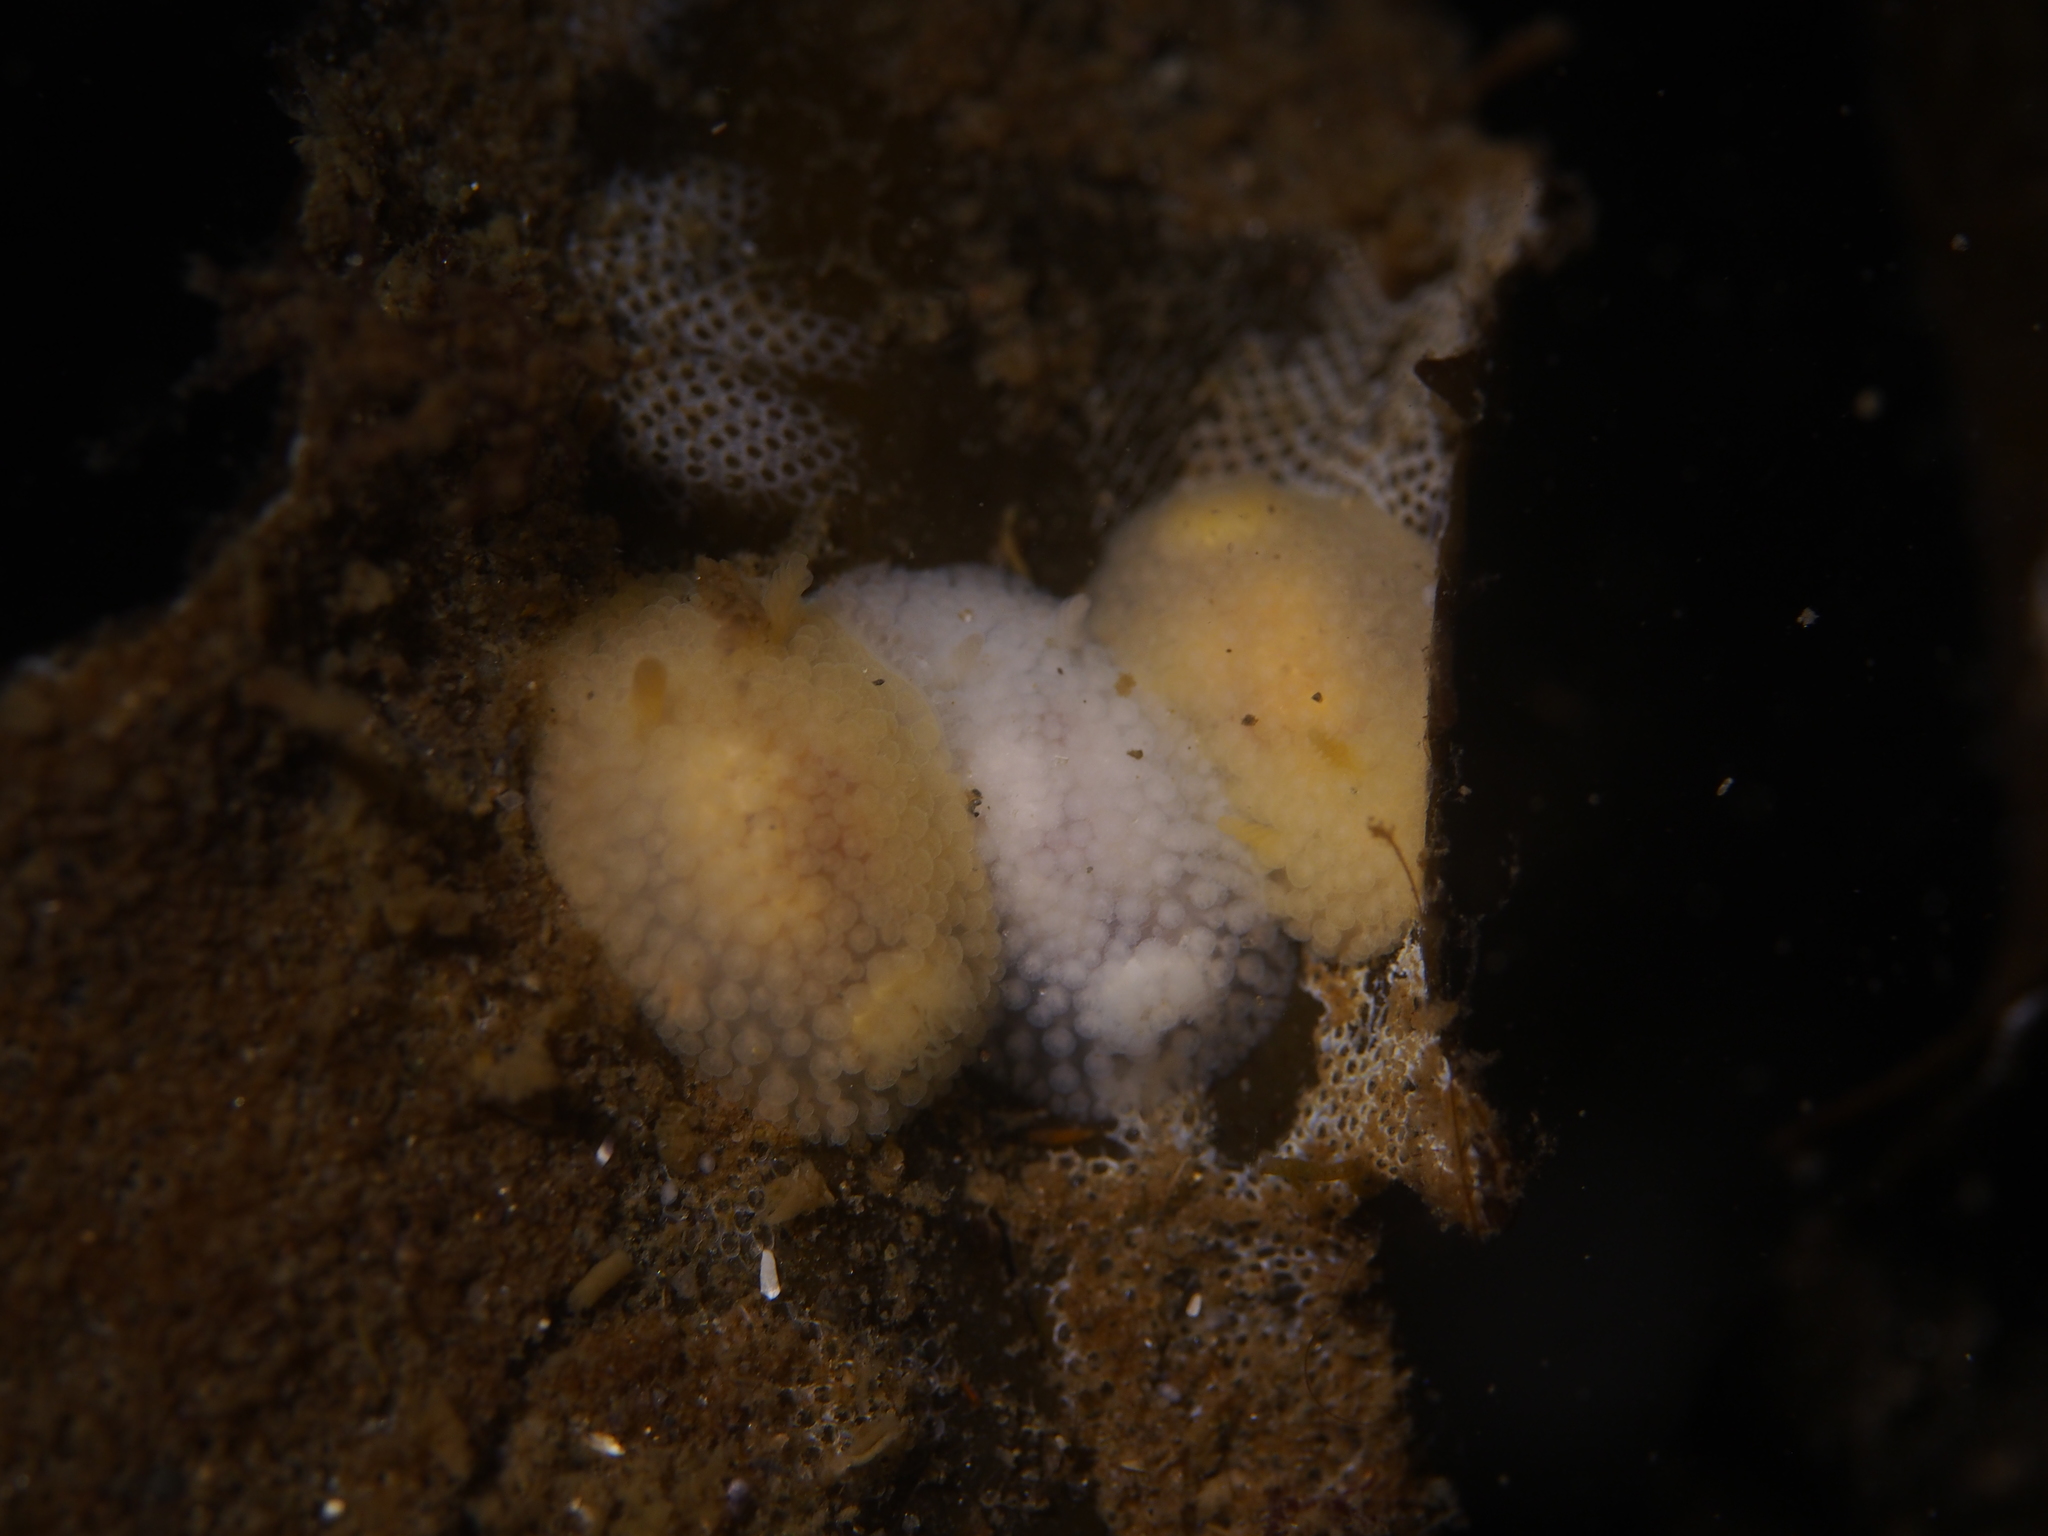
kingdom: Animalia
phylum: Mollusca
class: Gastropoda
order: Nudibranchia
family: Onchidorididae
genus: Onchidoris
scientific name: Onchidoris muricata
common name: Rough doris
